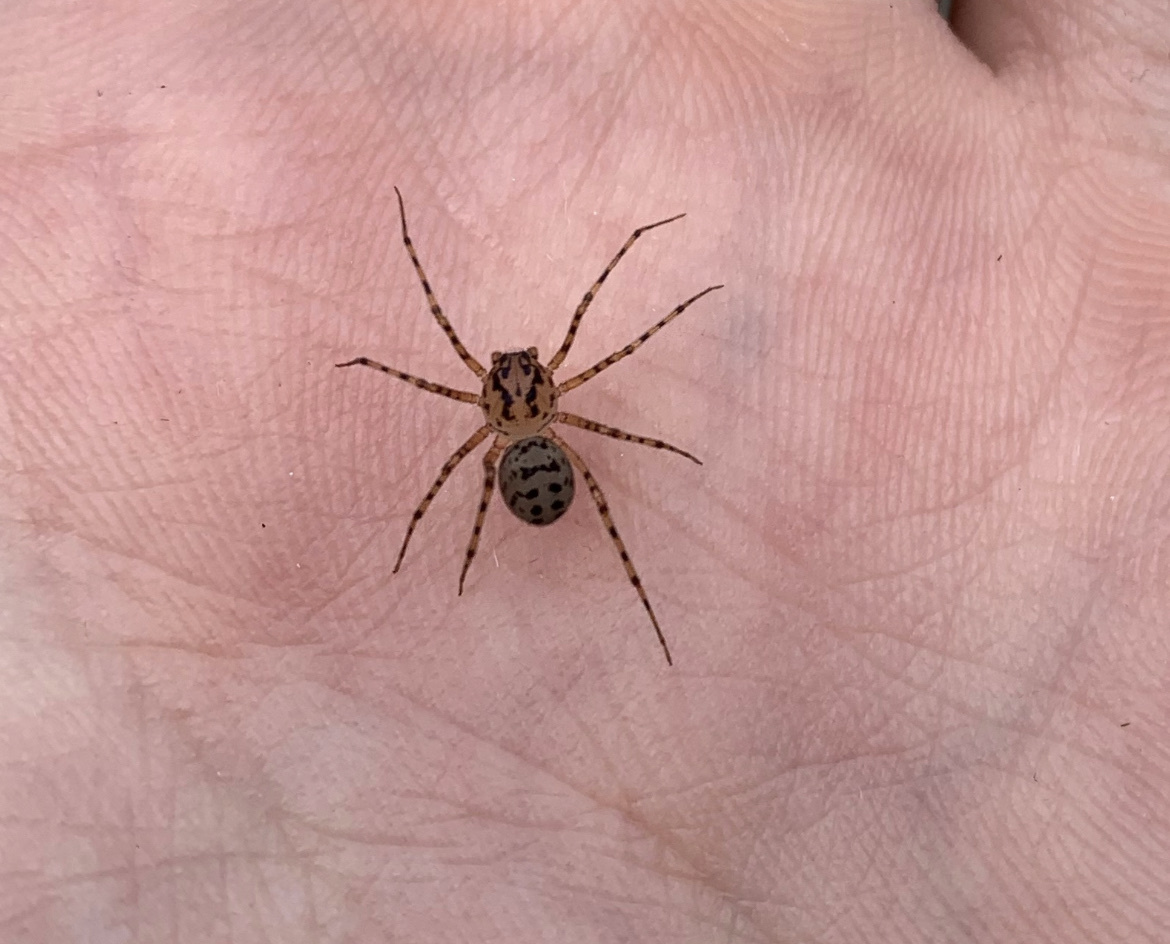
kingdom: Animalia
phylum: Arthropoda
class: Arachnida
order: Araneae
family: Scytodidae
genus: Scytodes
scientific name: Scytodes thoracica
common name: Spitting spider
